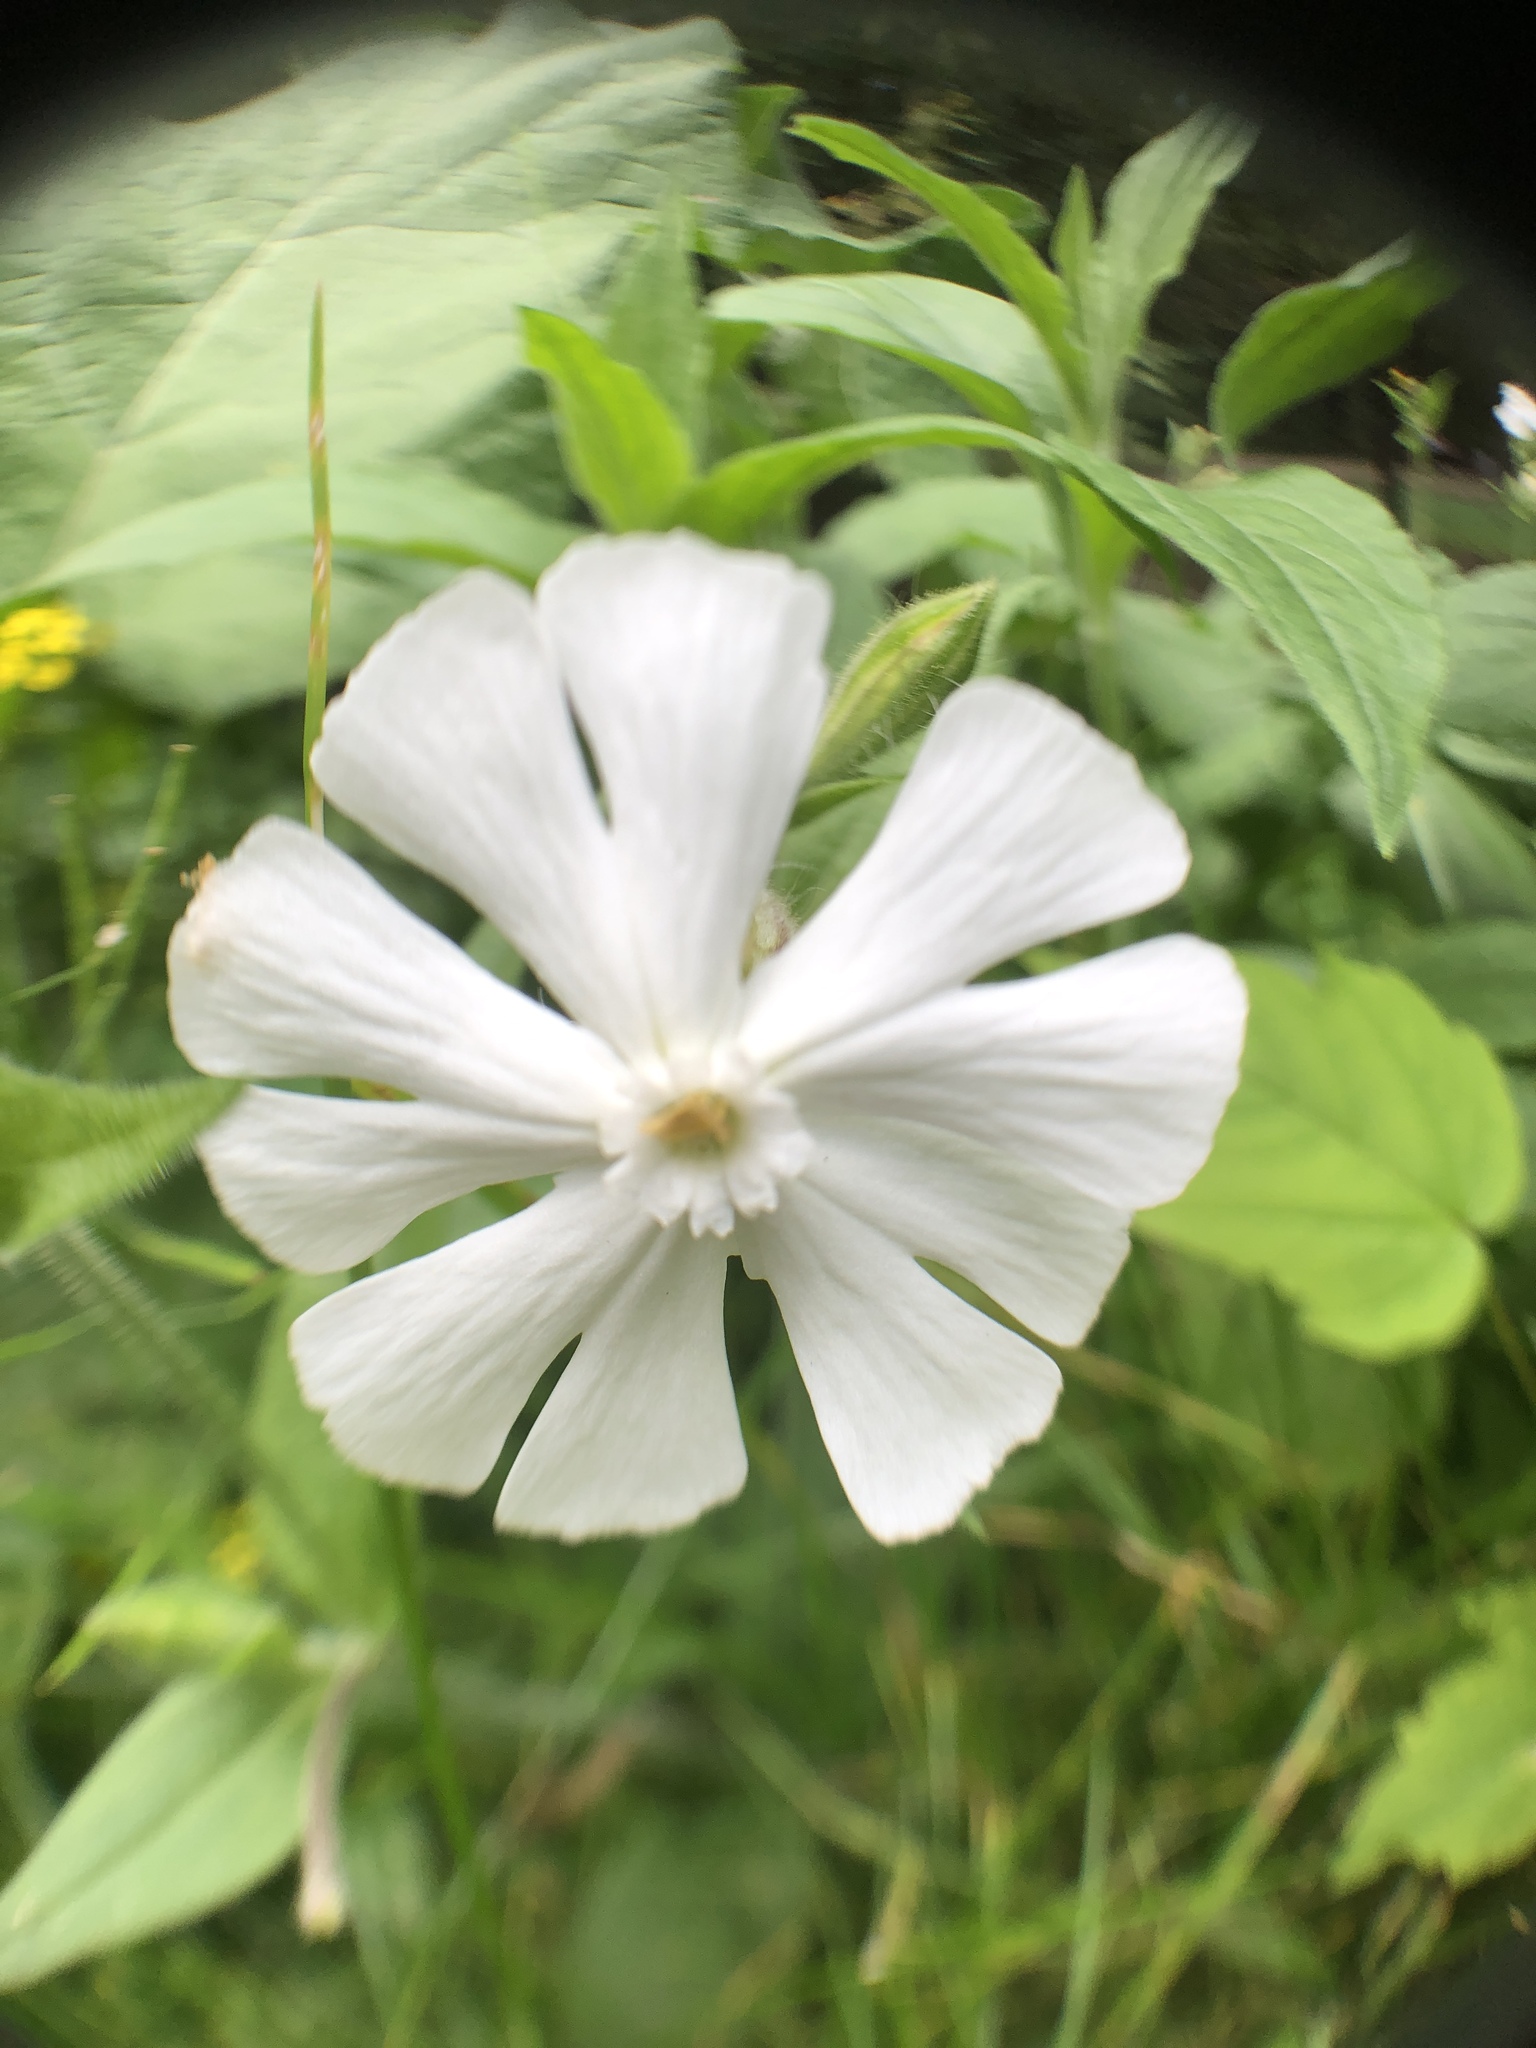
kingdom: Plantae
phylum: Tracheophyta
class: Magnoliopsida
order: Caryophyllales
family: Caryophyllaceae
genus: Silene
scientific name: Silene latifolia
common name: White campion
